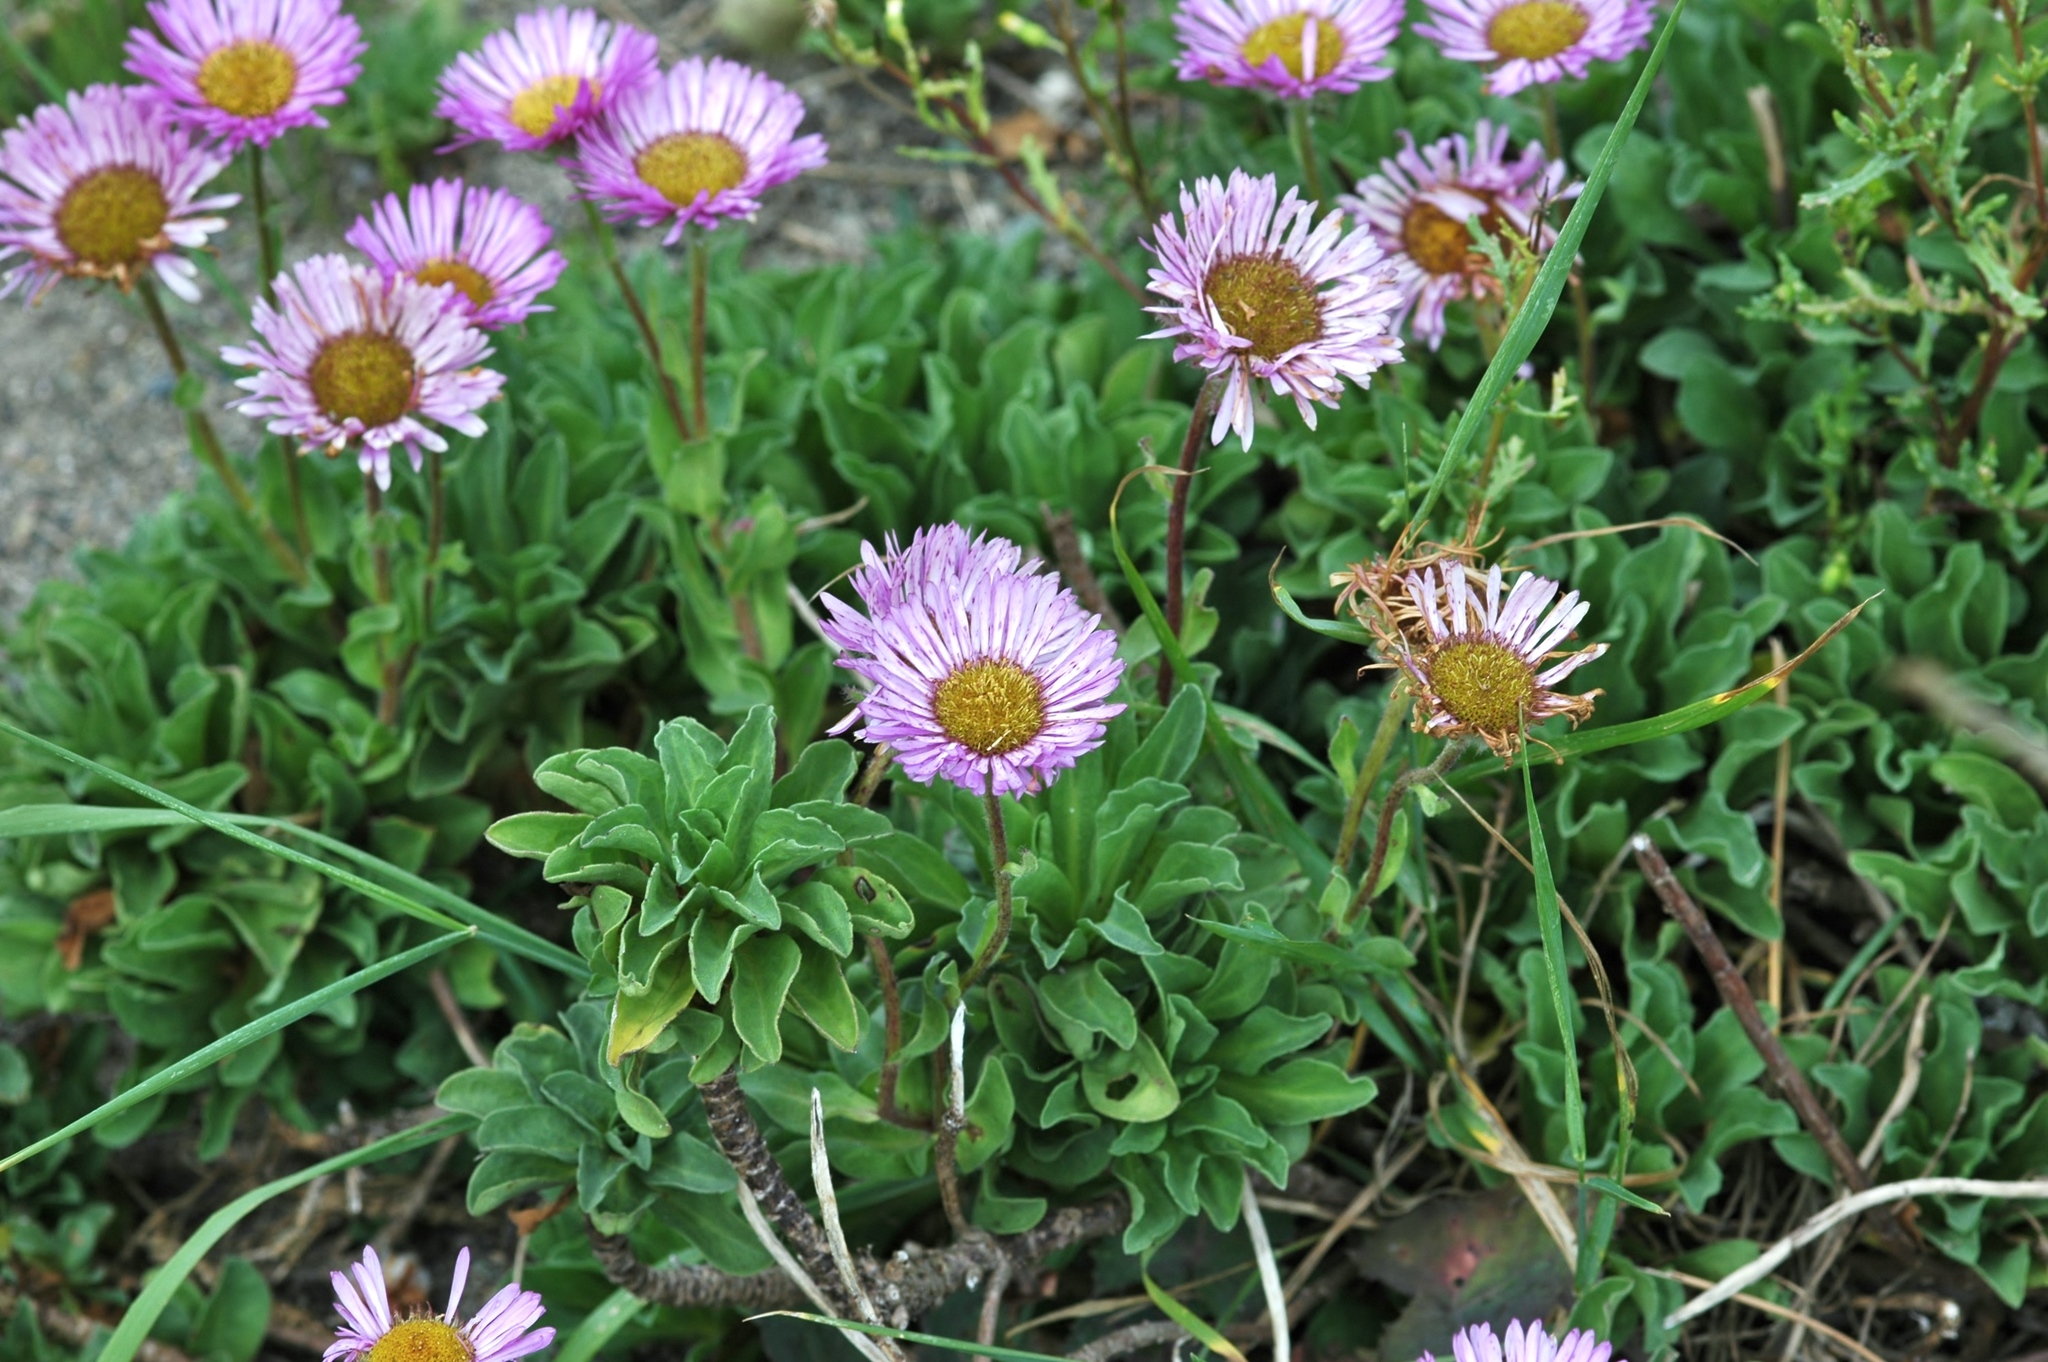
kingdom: Plantae
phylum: Tracheophyta
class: Magnoliopsida
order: Asterales
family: Asteraceae
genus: Erigeron
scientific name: Erigeron glaucus
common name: Seaside daisy
